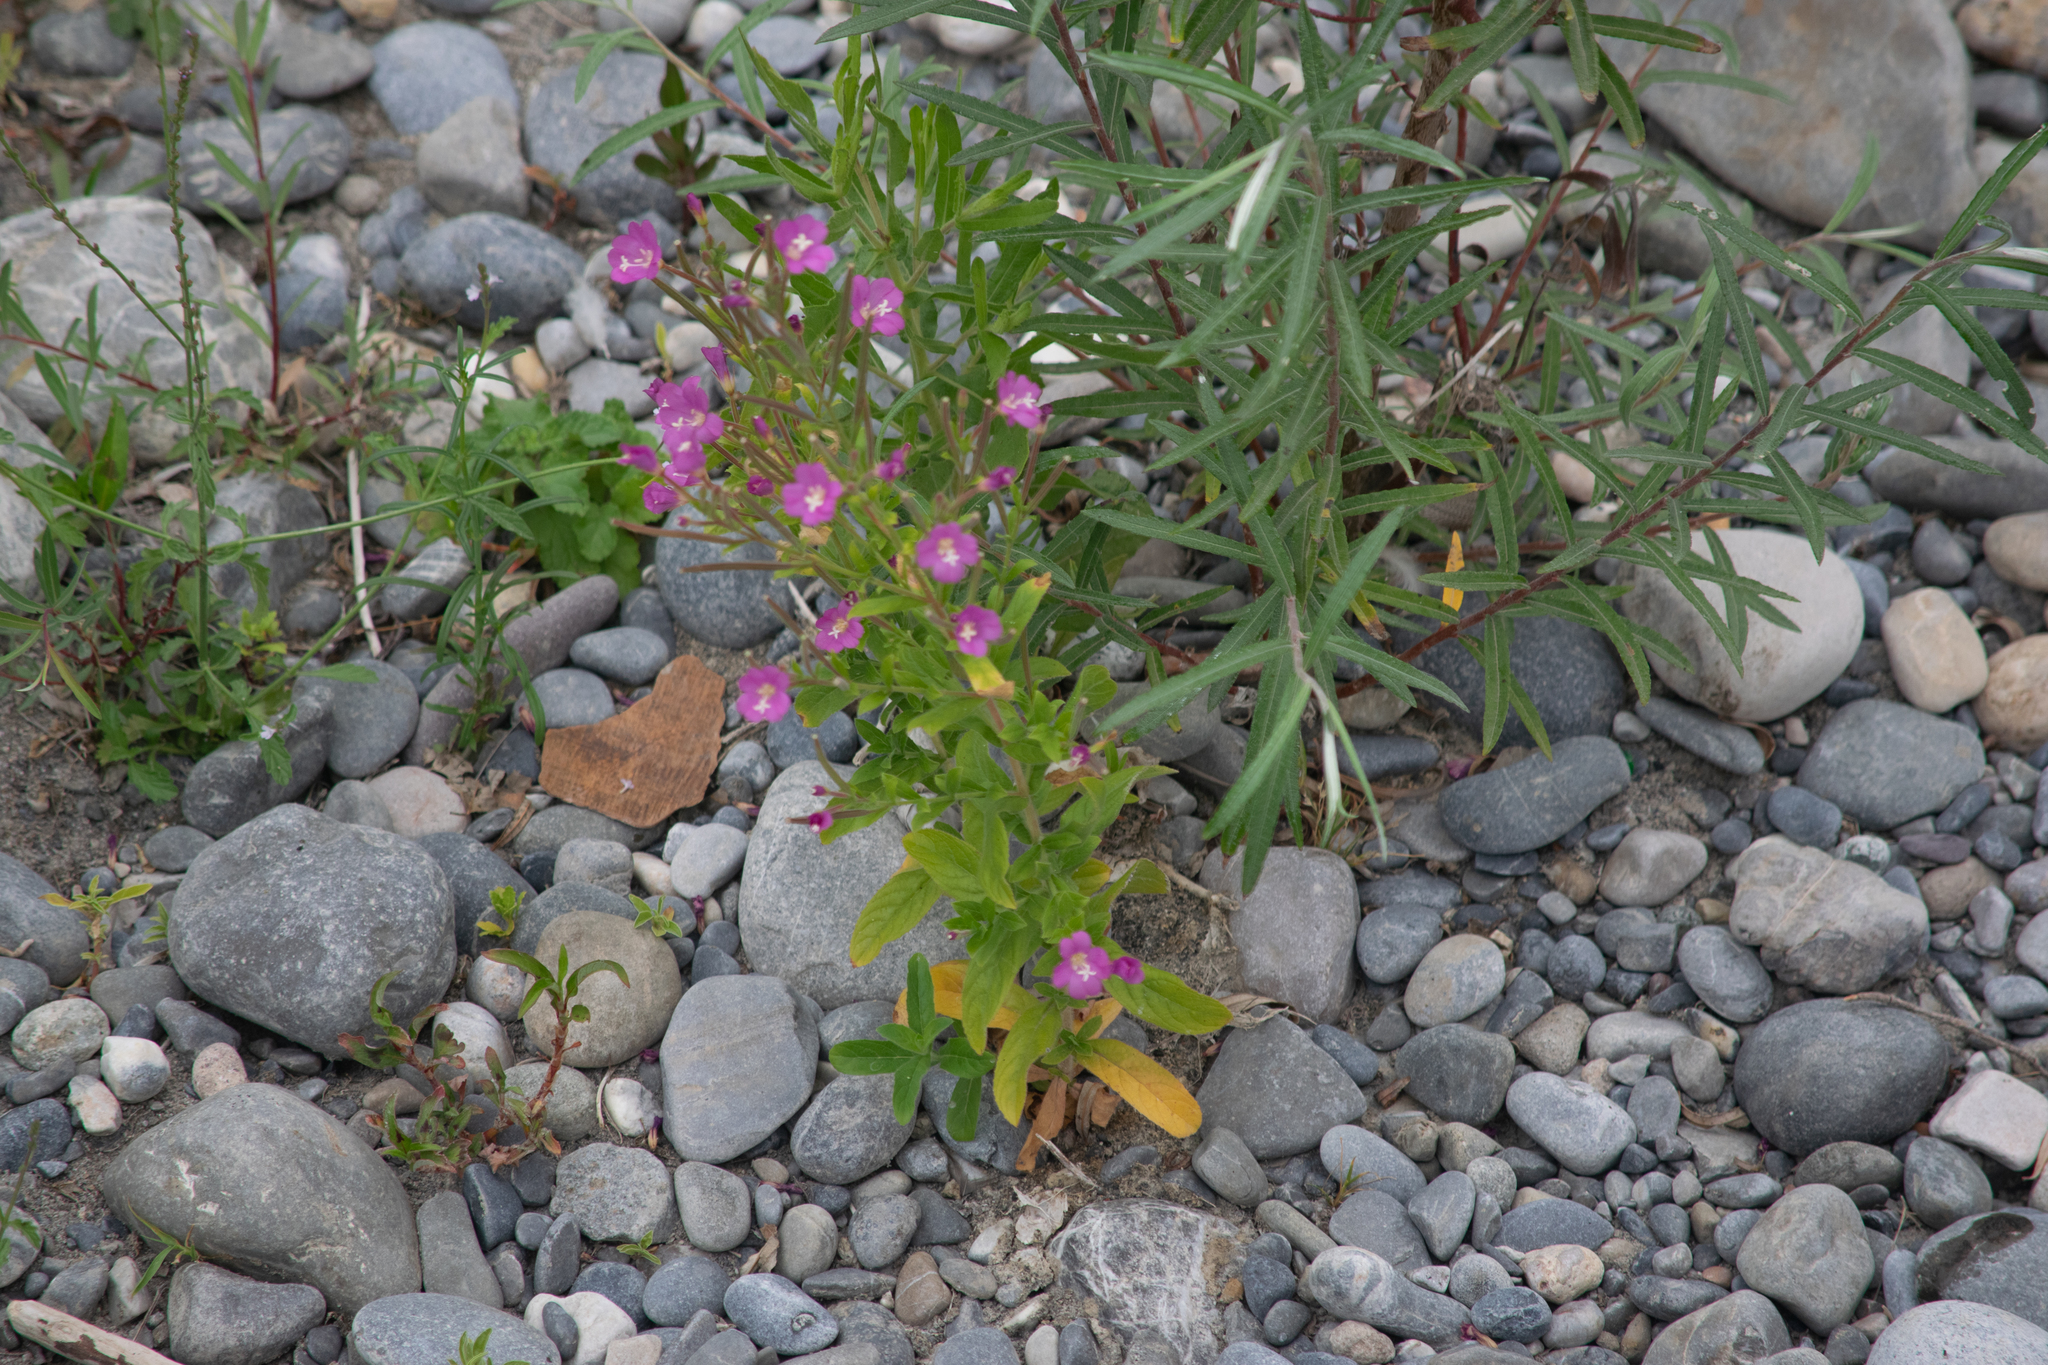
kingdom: Plantae
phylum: Tracheophyta
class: Magnoliopsida
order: Myrtales
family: Onagraceae
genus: Epilobium
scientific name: Epilobium hirsutum
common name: Great willowherb
